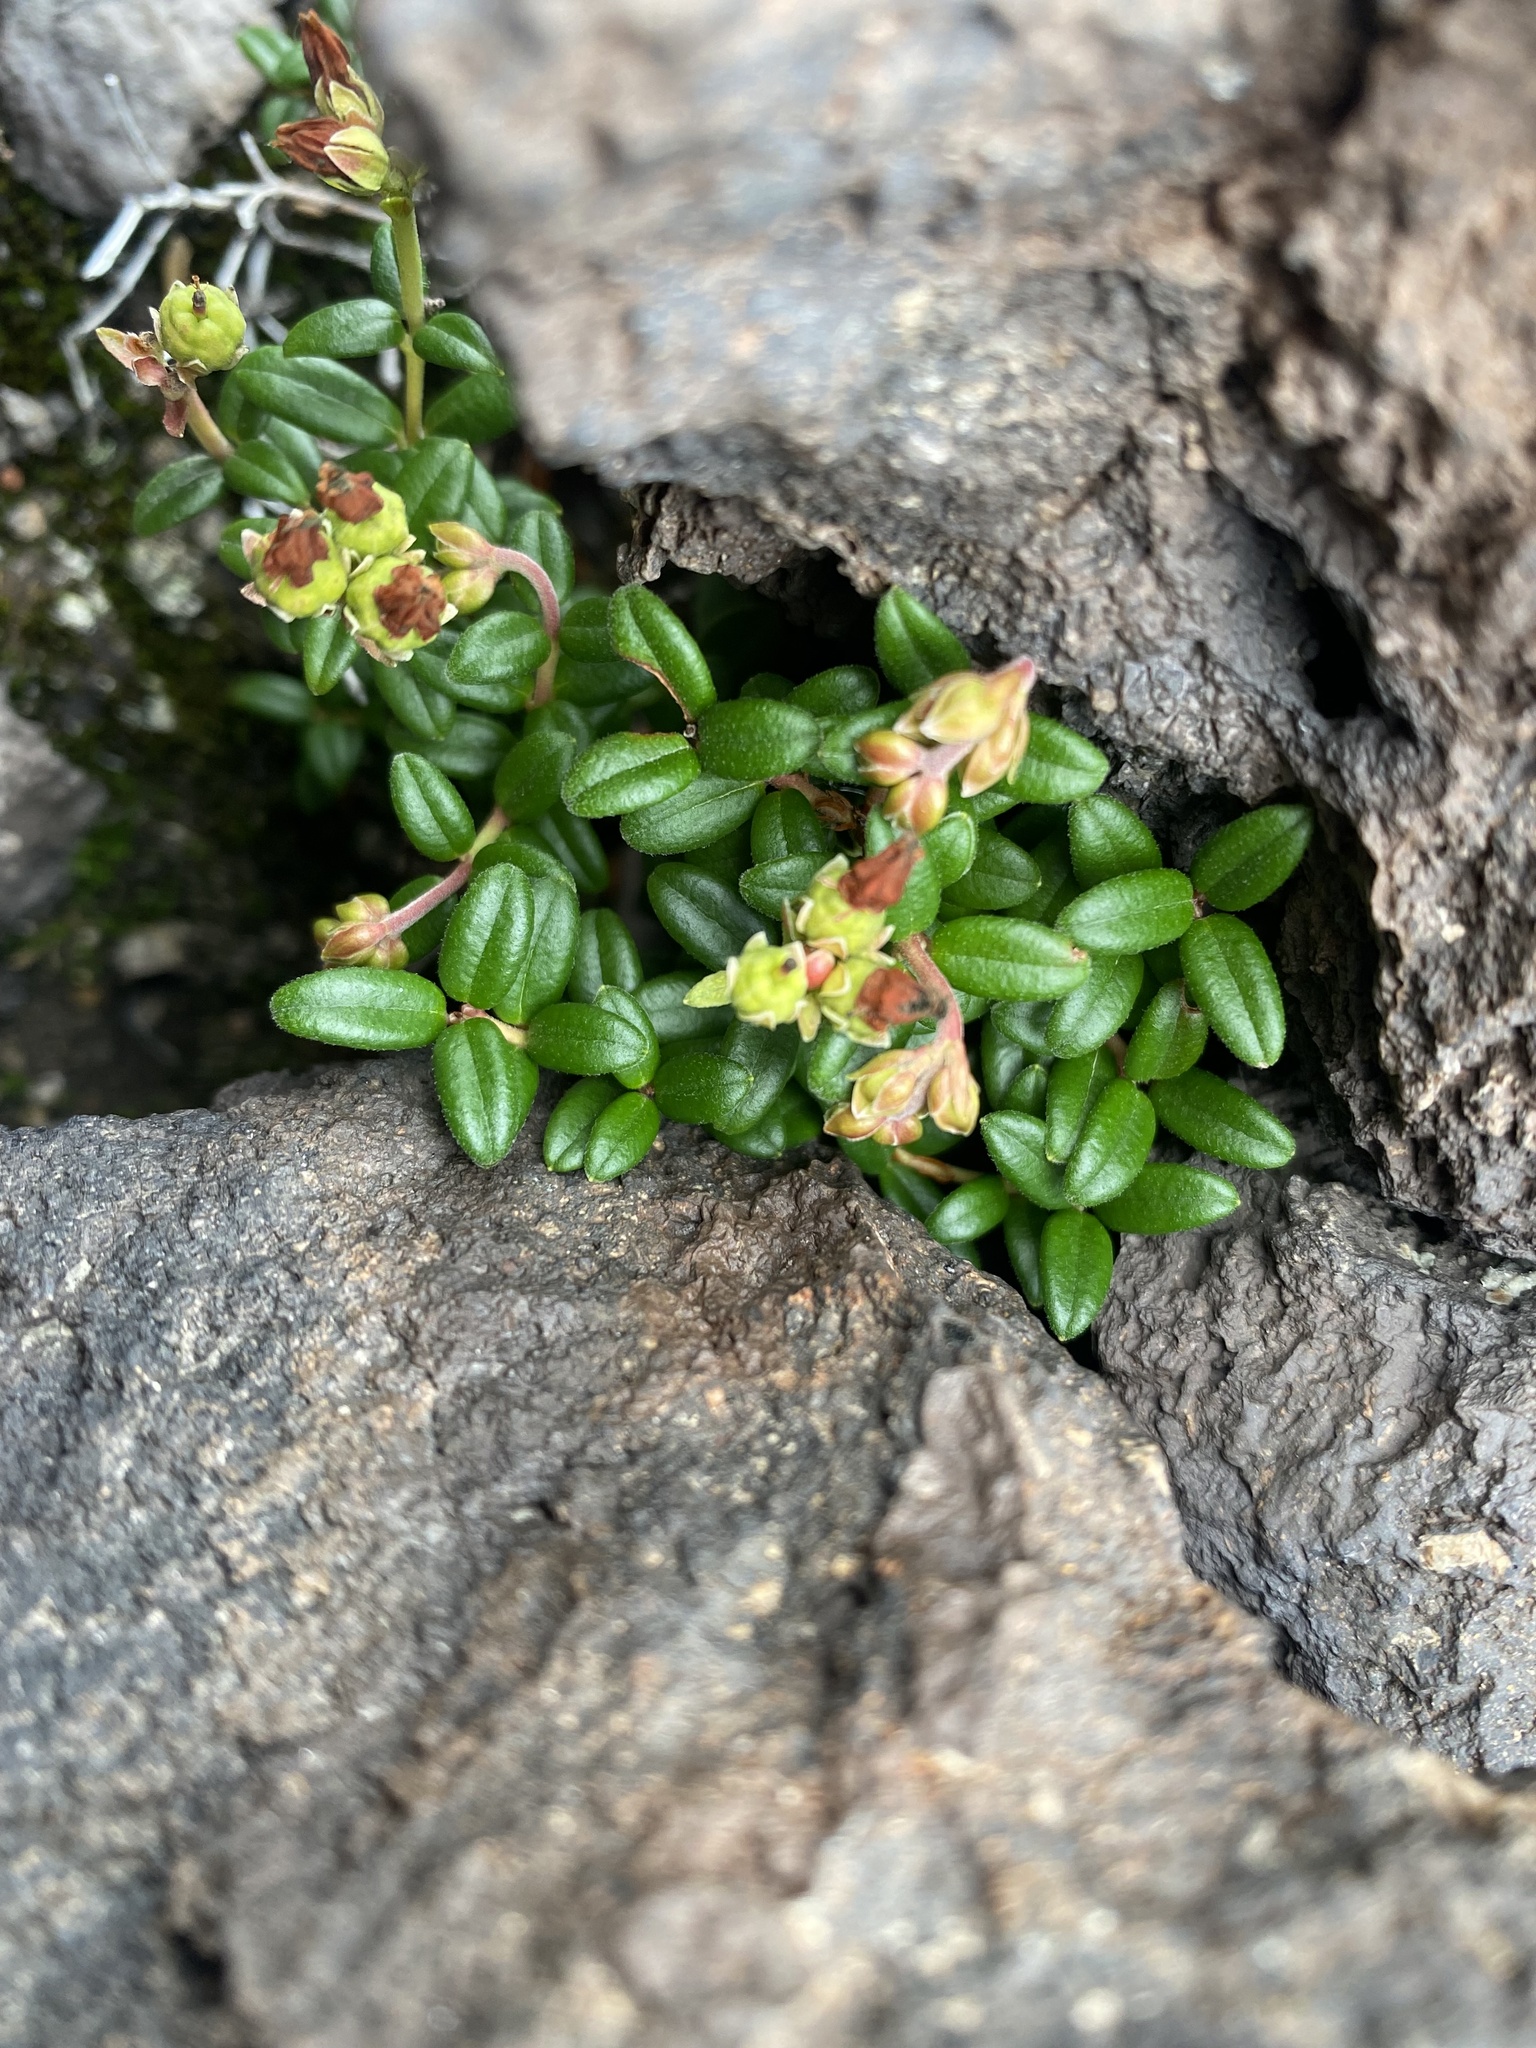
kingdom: Plantae
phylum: Tracheophyta
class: Magnoliopsida
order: Ericales
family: Ericaceae
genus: Pieris
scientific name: Pieris nana
